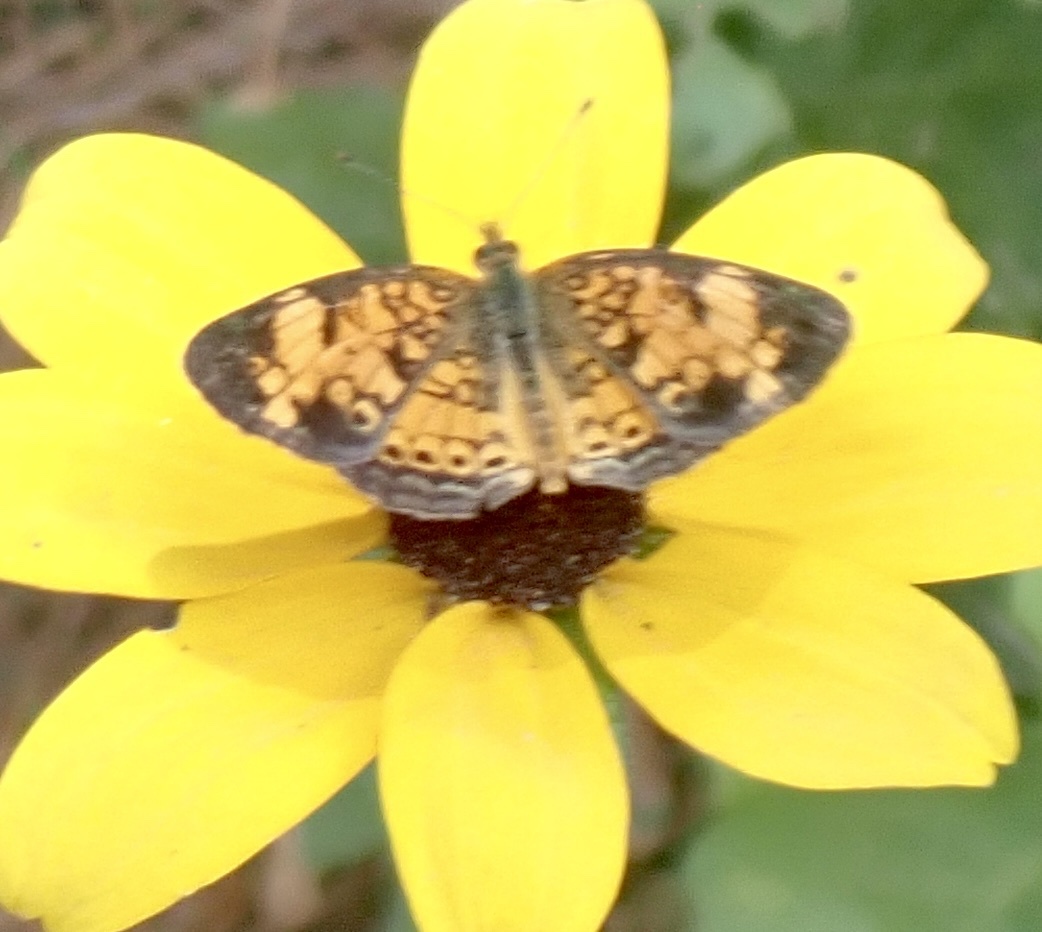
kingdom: Animalia
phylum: Arthropoda
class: Insecta
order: Lepidoptera
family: Nymphalidae
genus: Phyciodes
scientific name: Phyciodes tharos
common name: Pearl crescent
